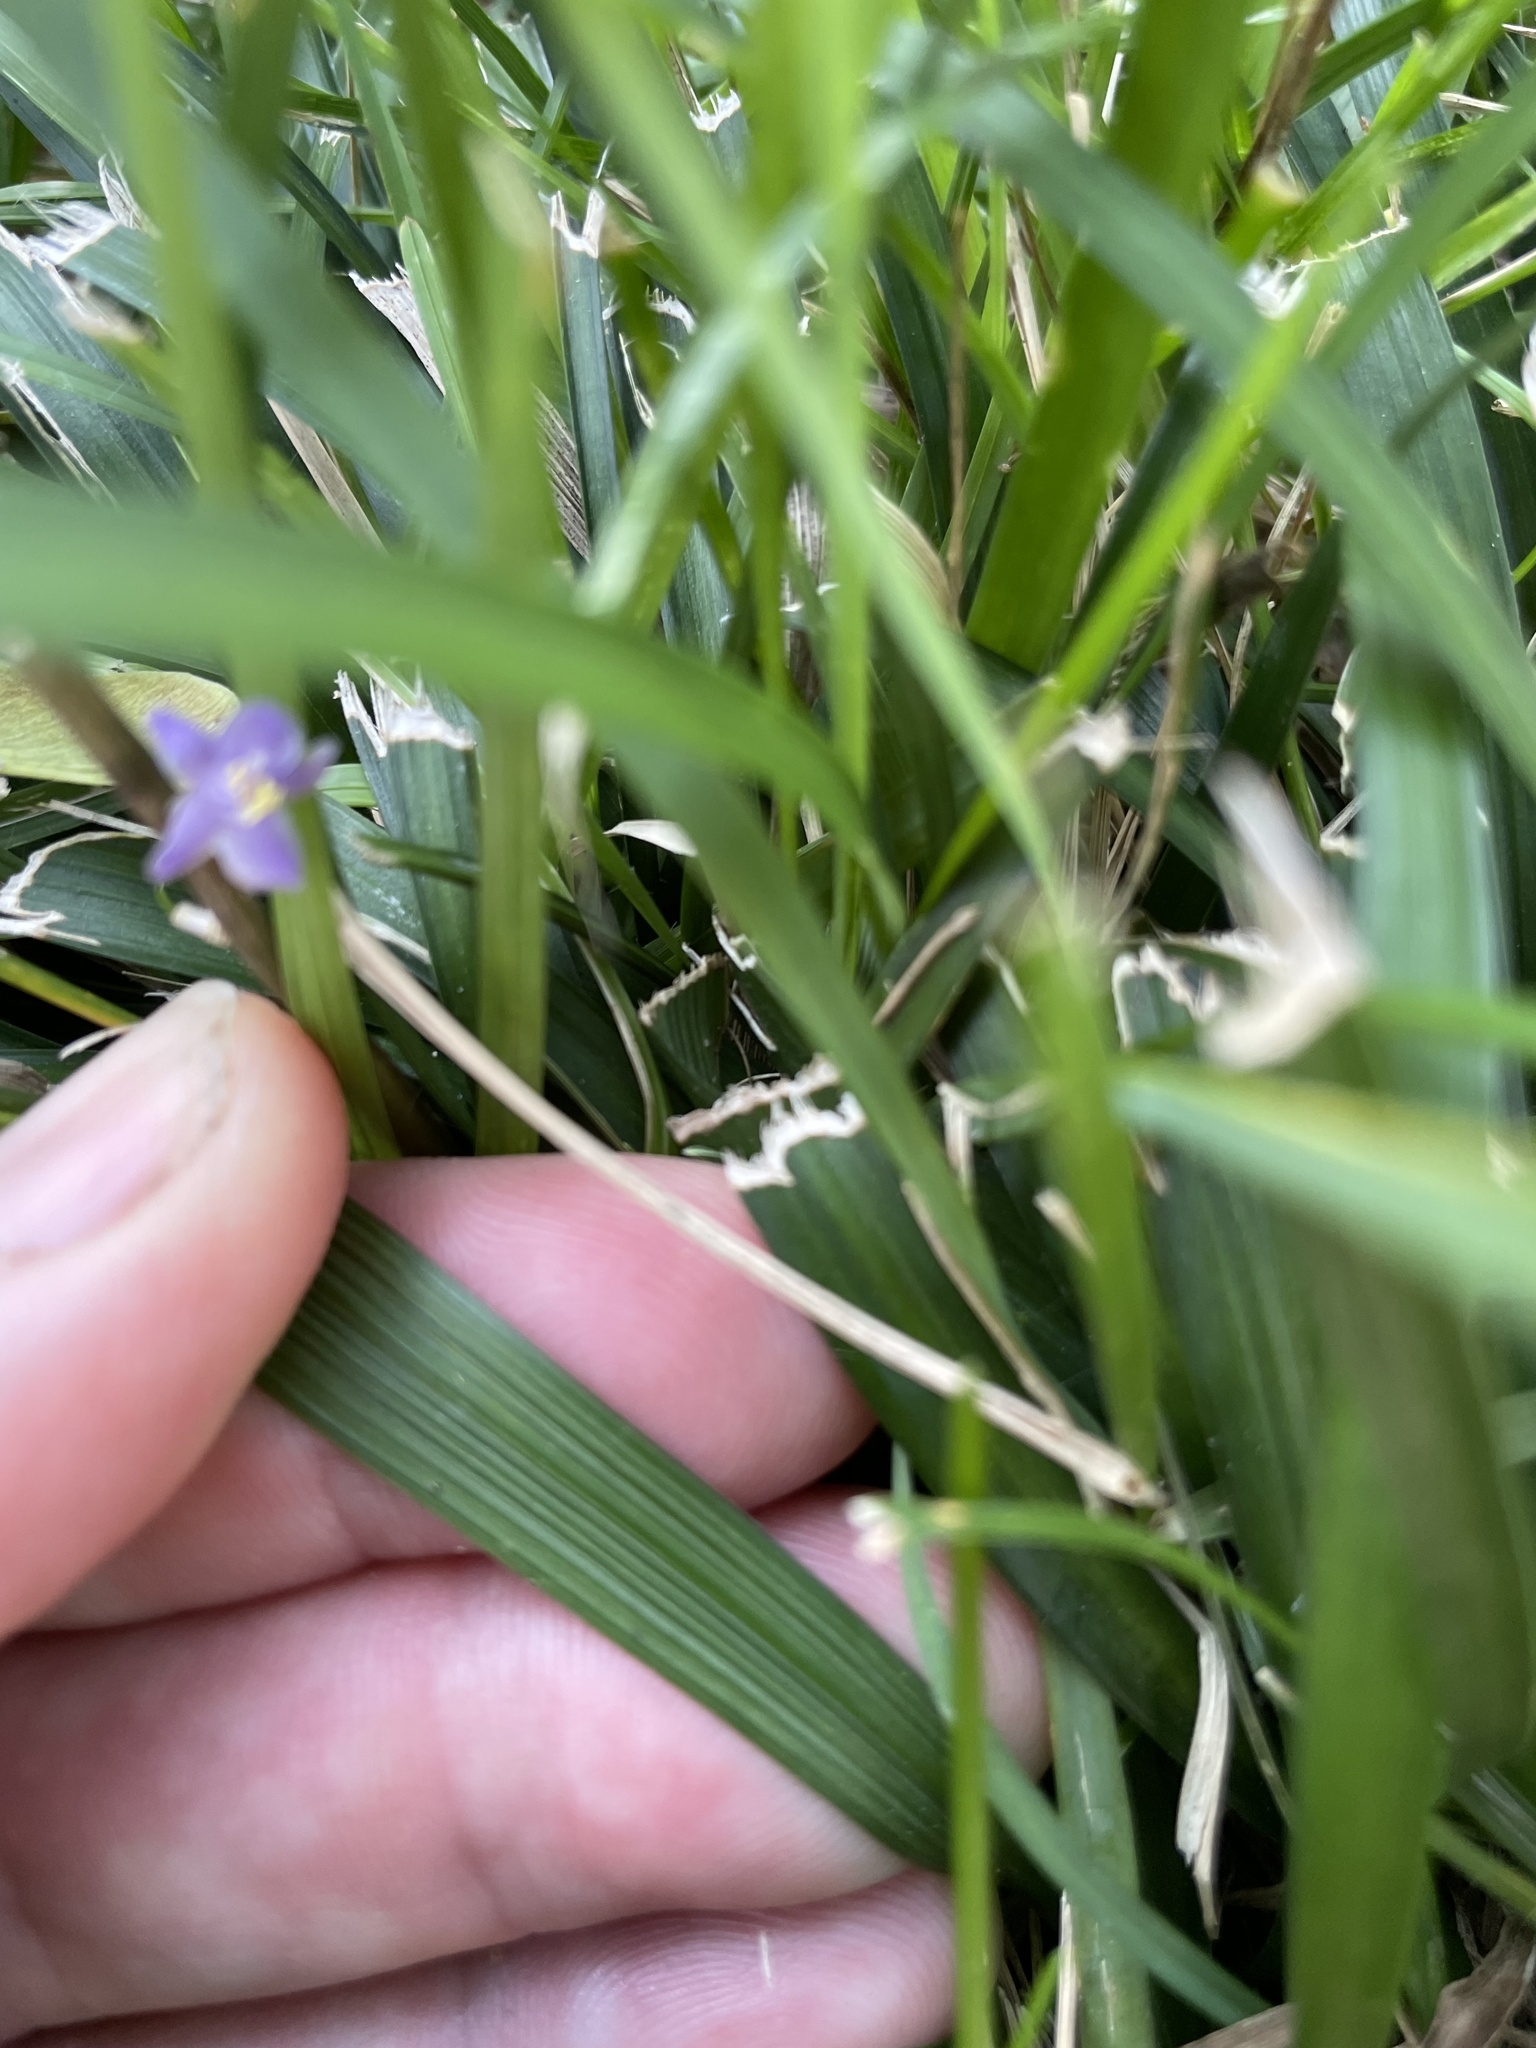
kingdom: Plantae
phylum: Tracheophyta
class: Liliopsida
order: Asparagales
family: Asparagaceae
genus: Liriope
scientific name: Liriope muscari
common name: Big blue lilyturf
